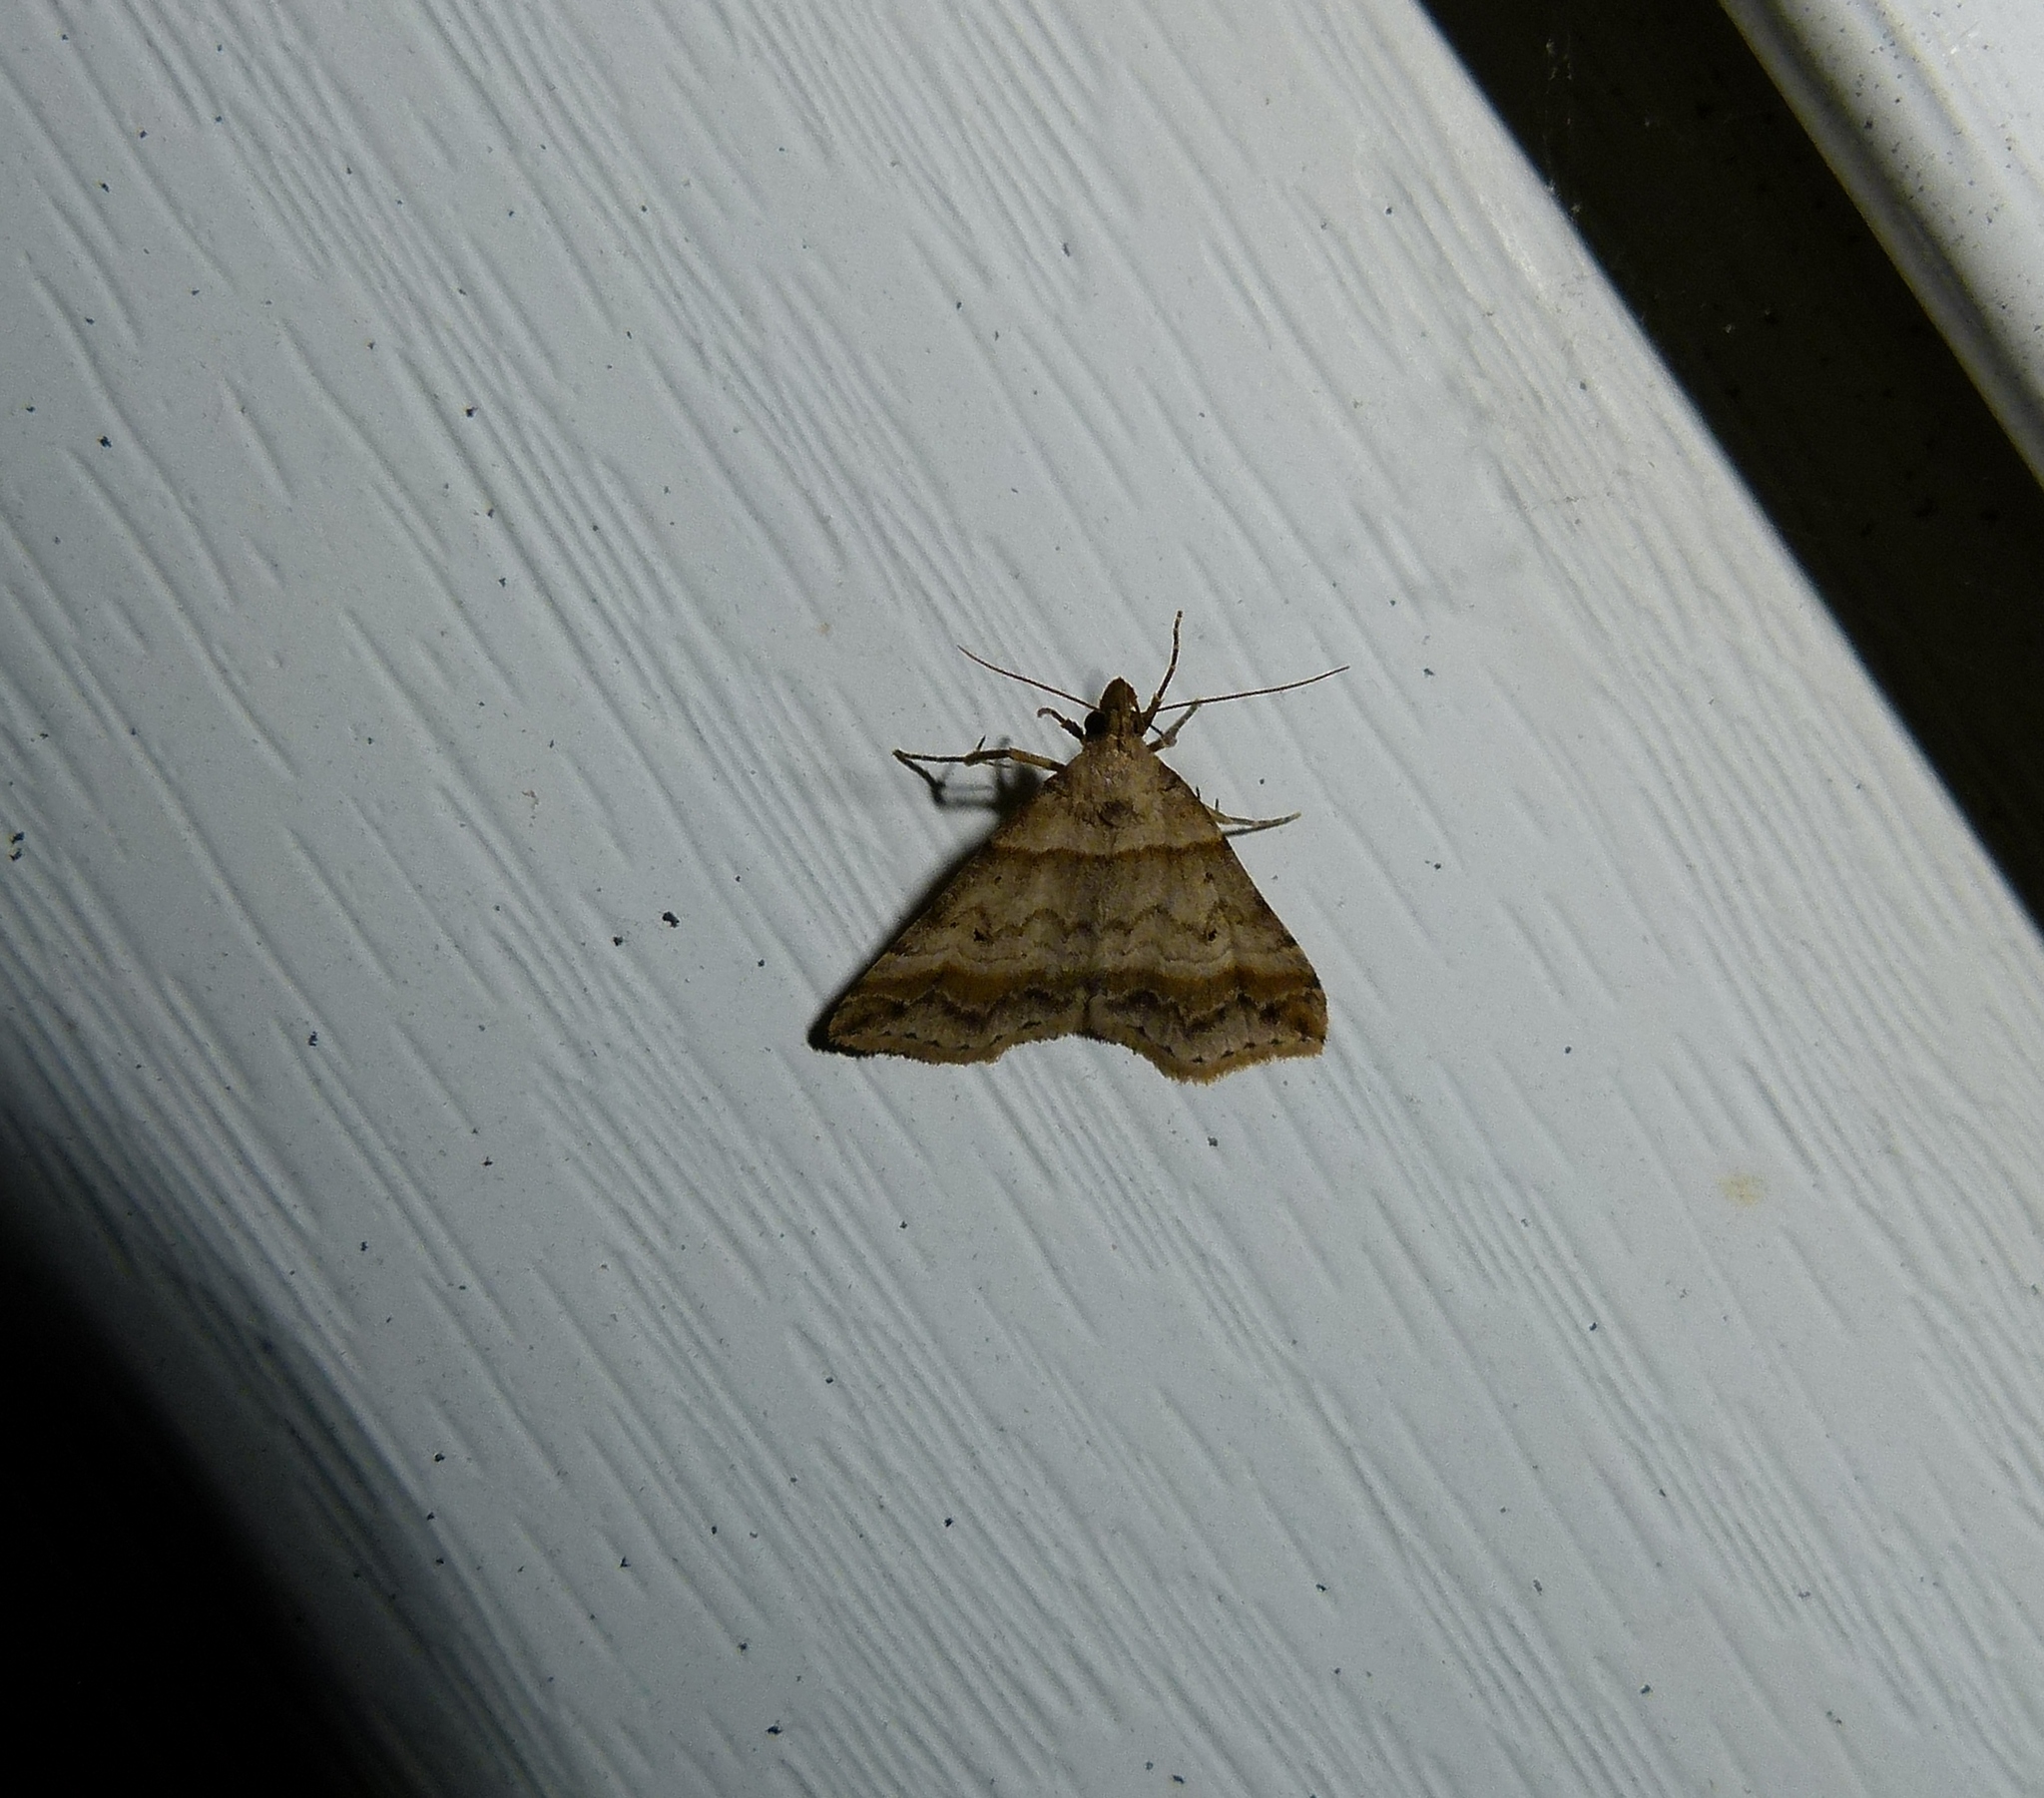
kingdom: Animalia
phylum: Arthropoda
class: Insecta
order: Lepidoptera
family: Erebidae
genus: Phaeolita
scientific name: Phaeolita pyramusalis
